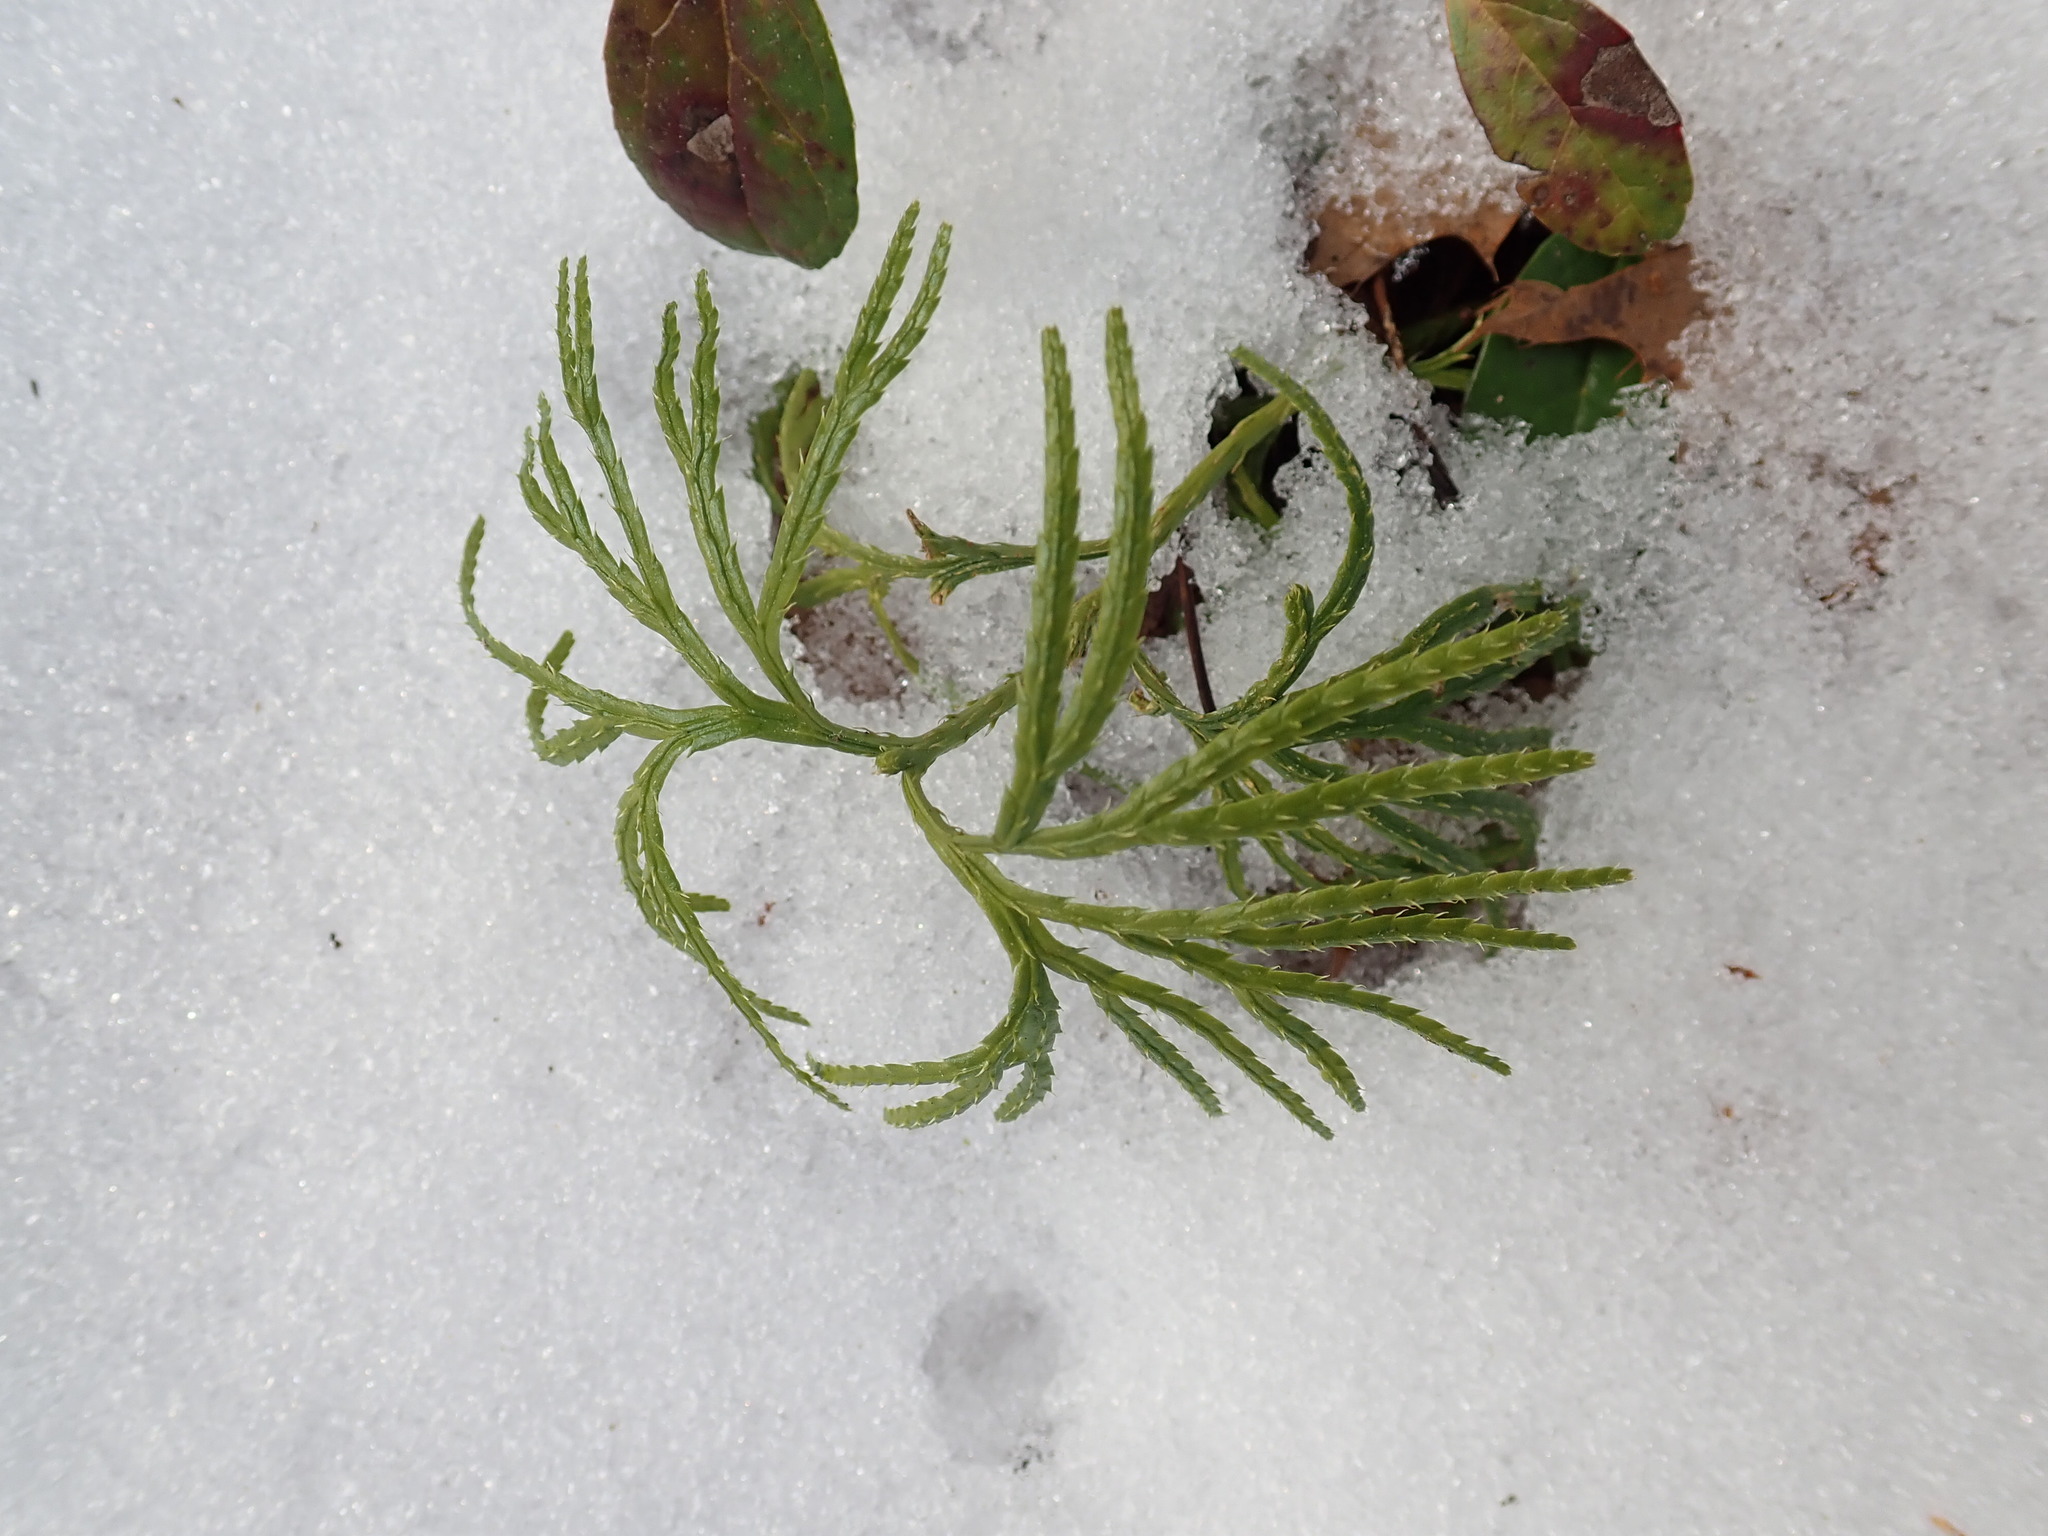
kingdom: Plantae
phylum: Tracheophyta
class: Lycopodiopsida
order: Lycopodiales
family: Lycopodiaceae
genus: Diphasiastrum
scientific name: Diphasiastrum digitatum
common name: Southern running-pine
